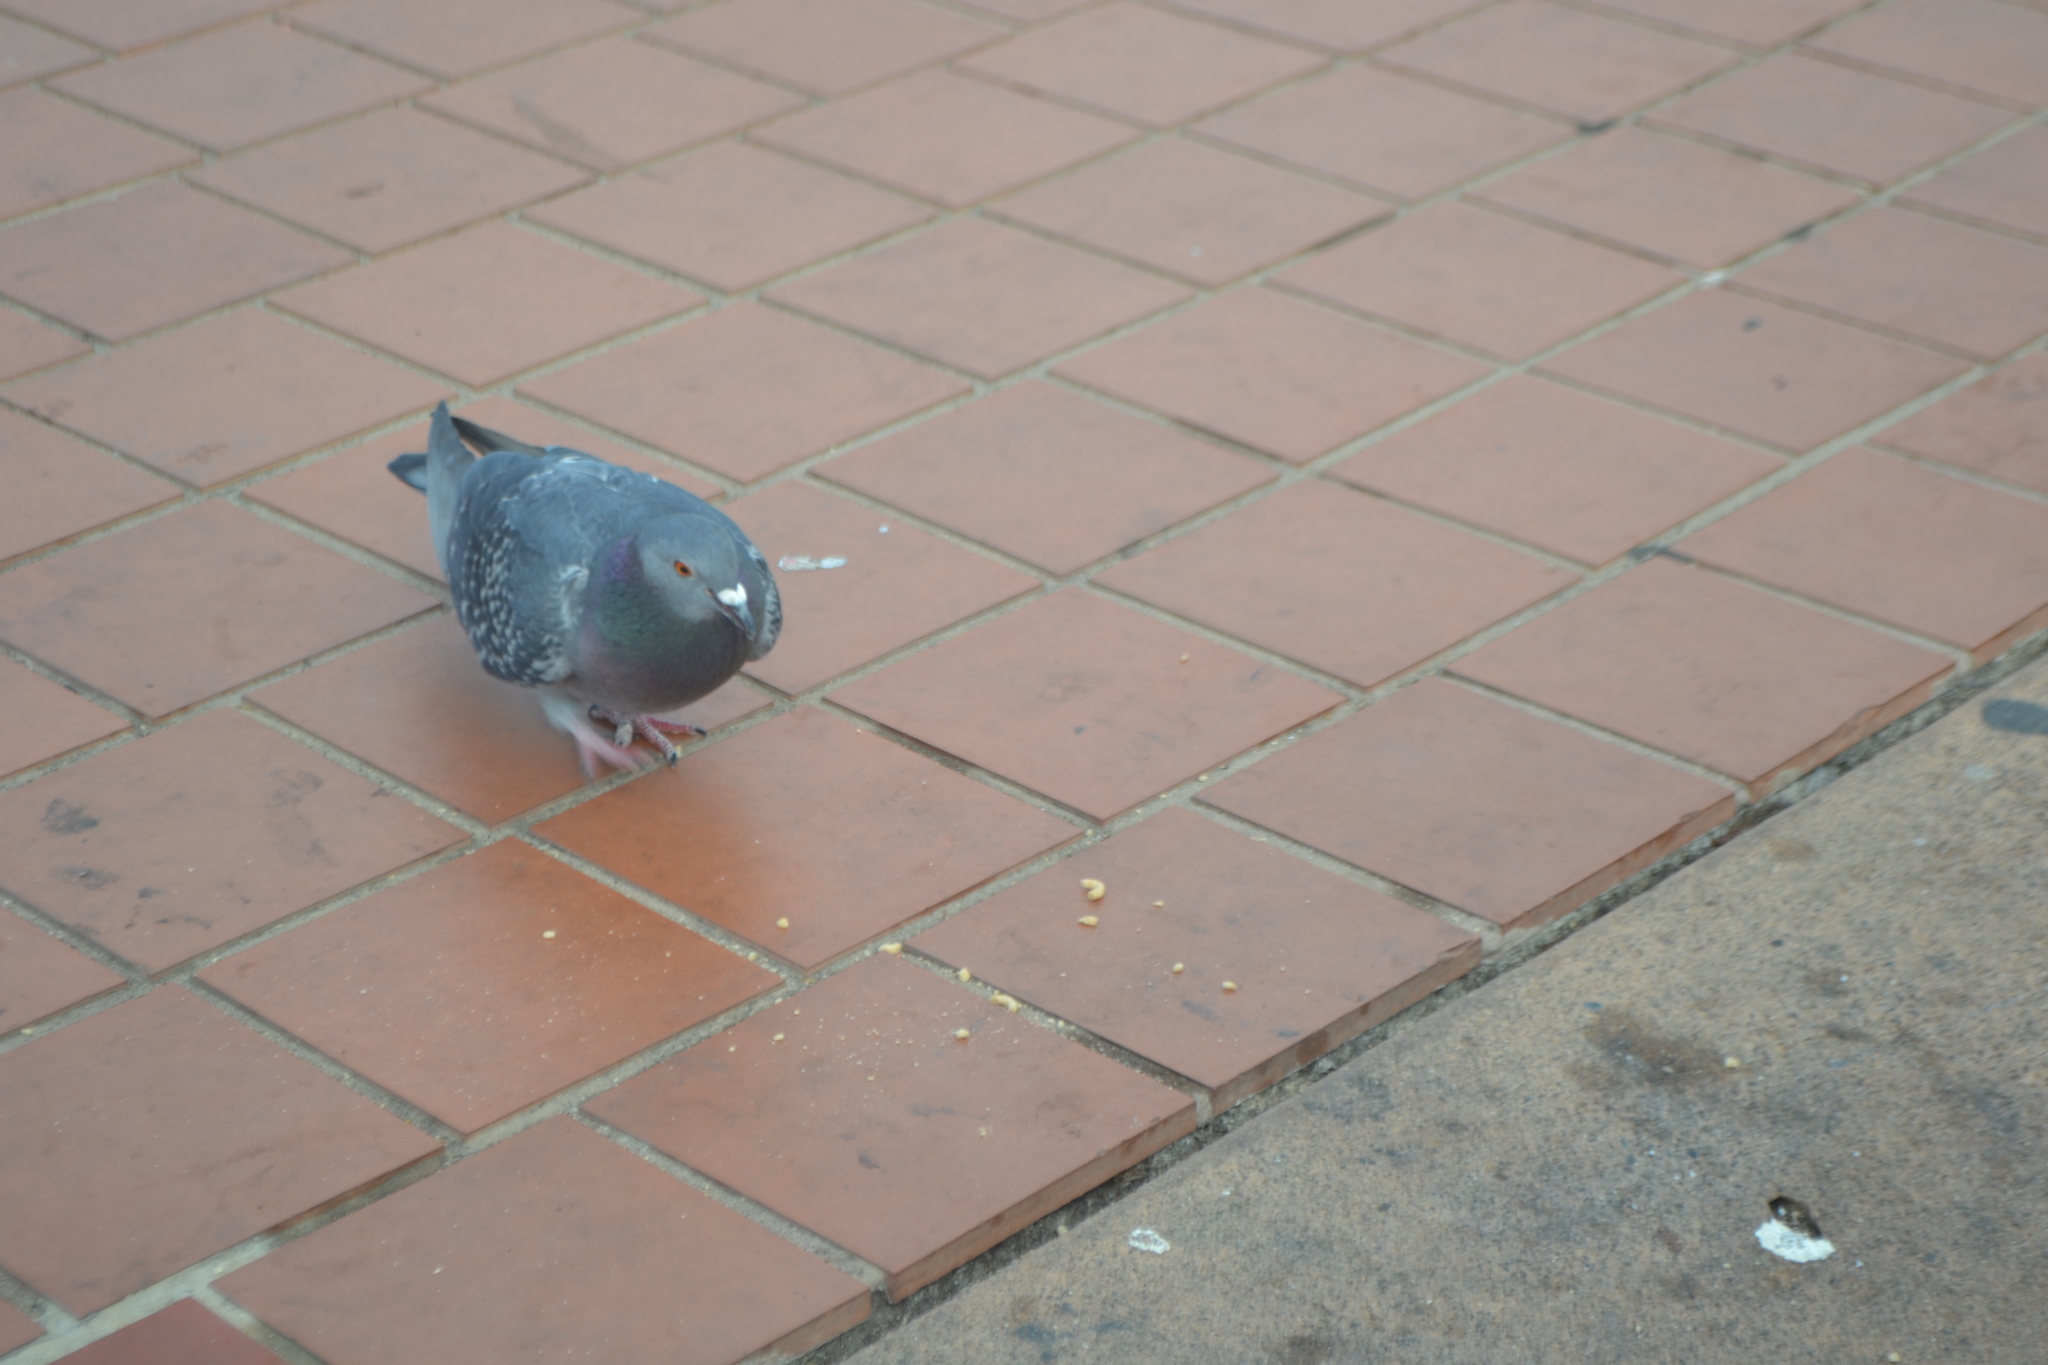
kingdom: Animalia
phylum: Chordata
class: Aves
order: Columbiformes
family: Columbidae
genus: Columba
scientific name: Columba livia
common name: Rock pigeon
